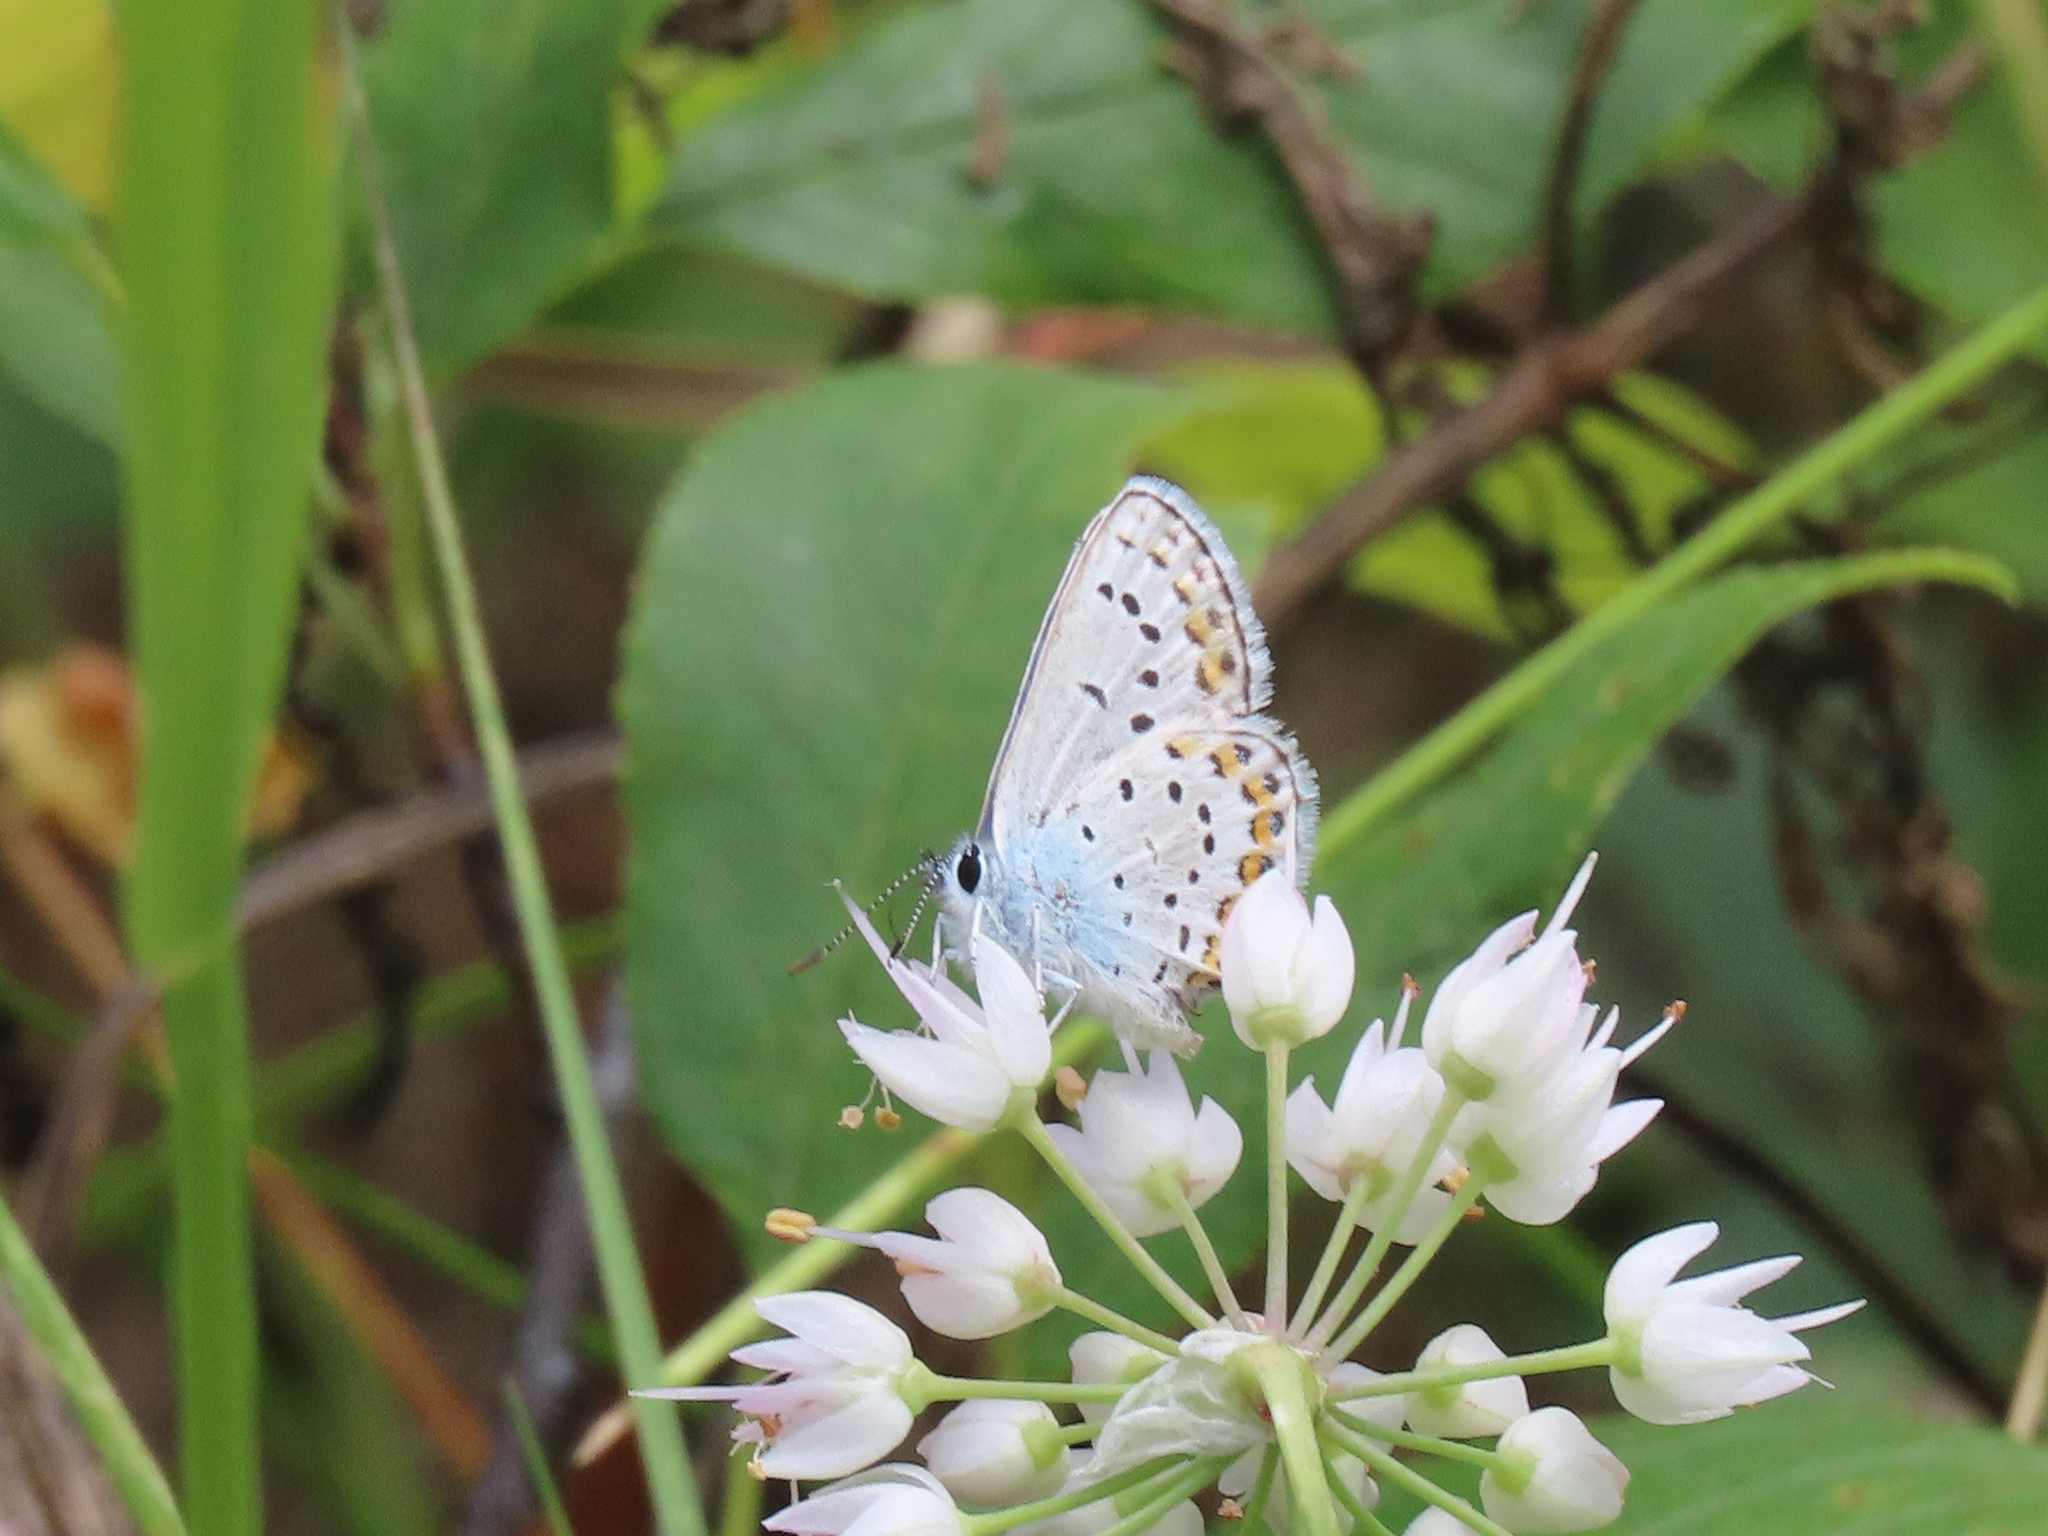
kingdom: Animalia
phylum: Arthropoda
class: Insecta
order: Lepidoptera
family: Lycaenidae
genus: Lycaeides
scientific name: Lycaeides melissa
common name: Melissa blue
